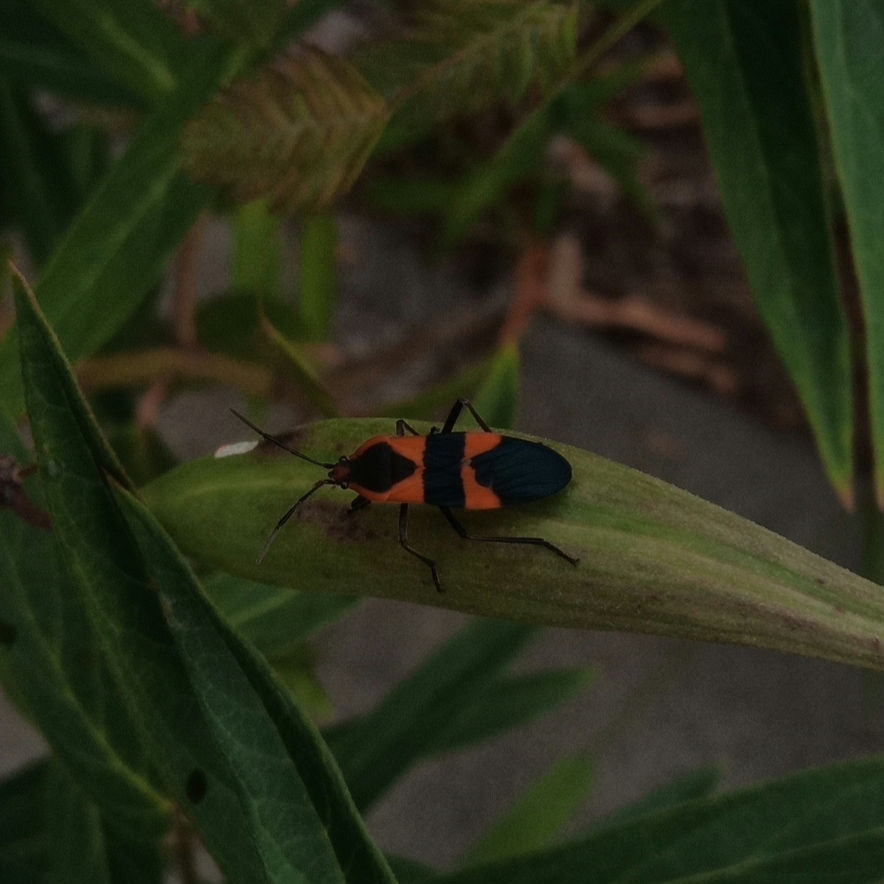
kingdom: Animalia
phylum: Arthropoda
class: Insecta
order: Hemiptera
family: Lygaeidae
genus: Oncopeltus
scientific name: Oncopeltus fasciatus
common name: Large milkweed bug
